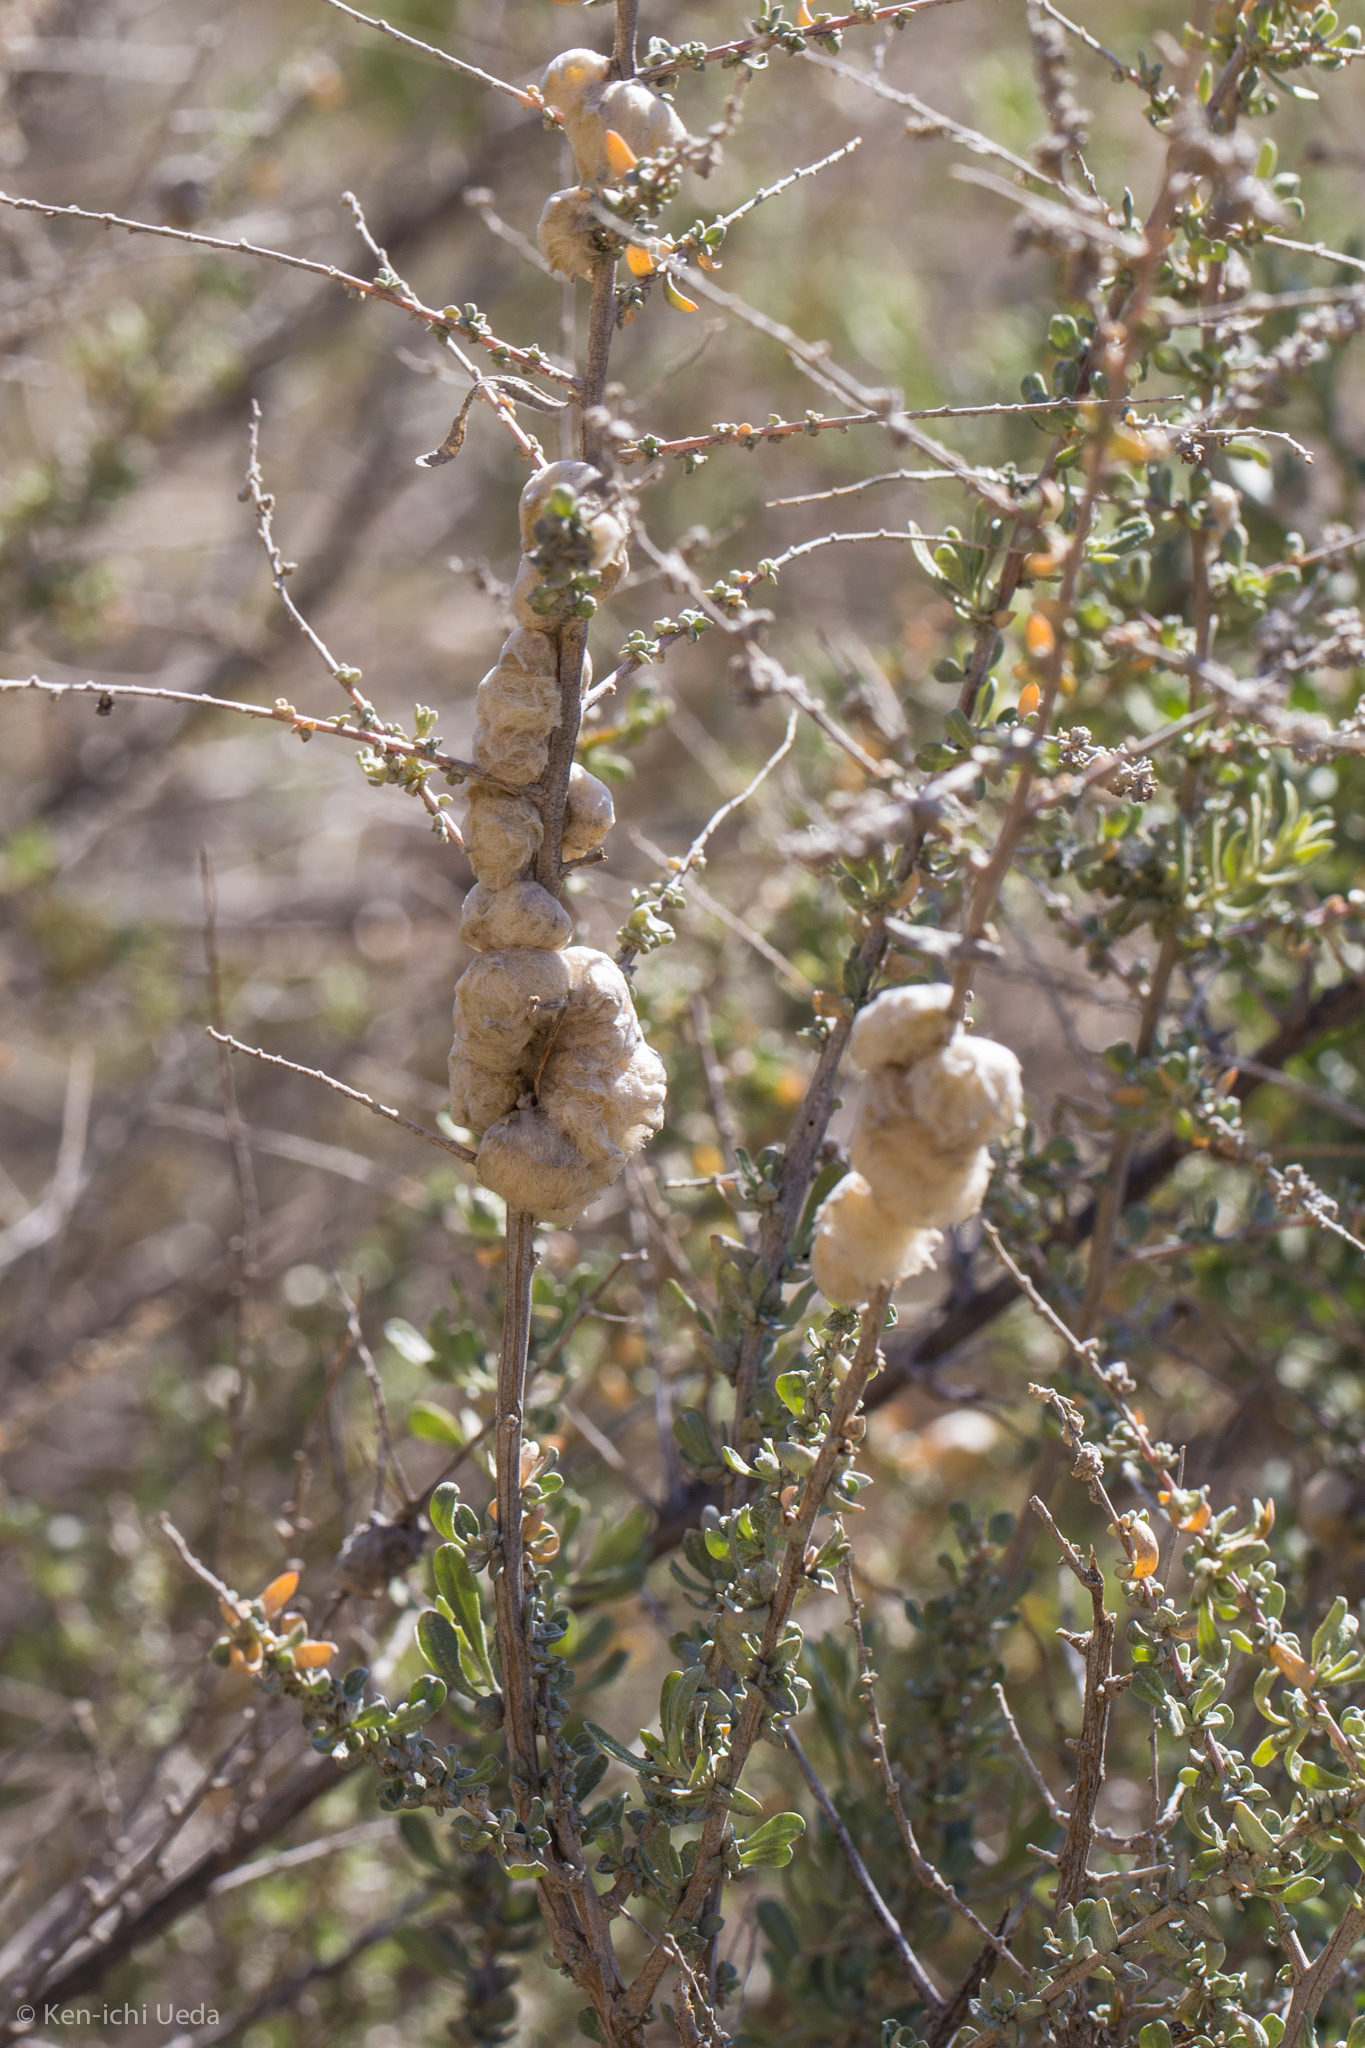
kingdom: Animalia
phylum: Arthropoda
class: Insecta
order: Diptera
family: Cecidomyiidae
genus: Asphondylia
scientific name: Asphondylia floccosa
